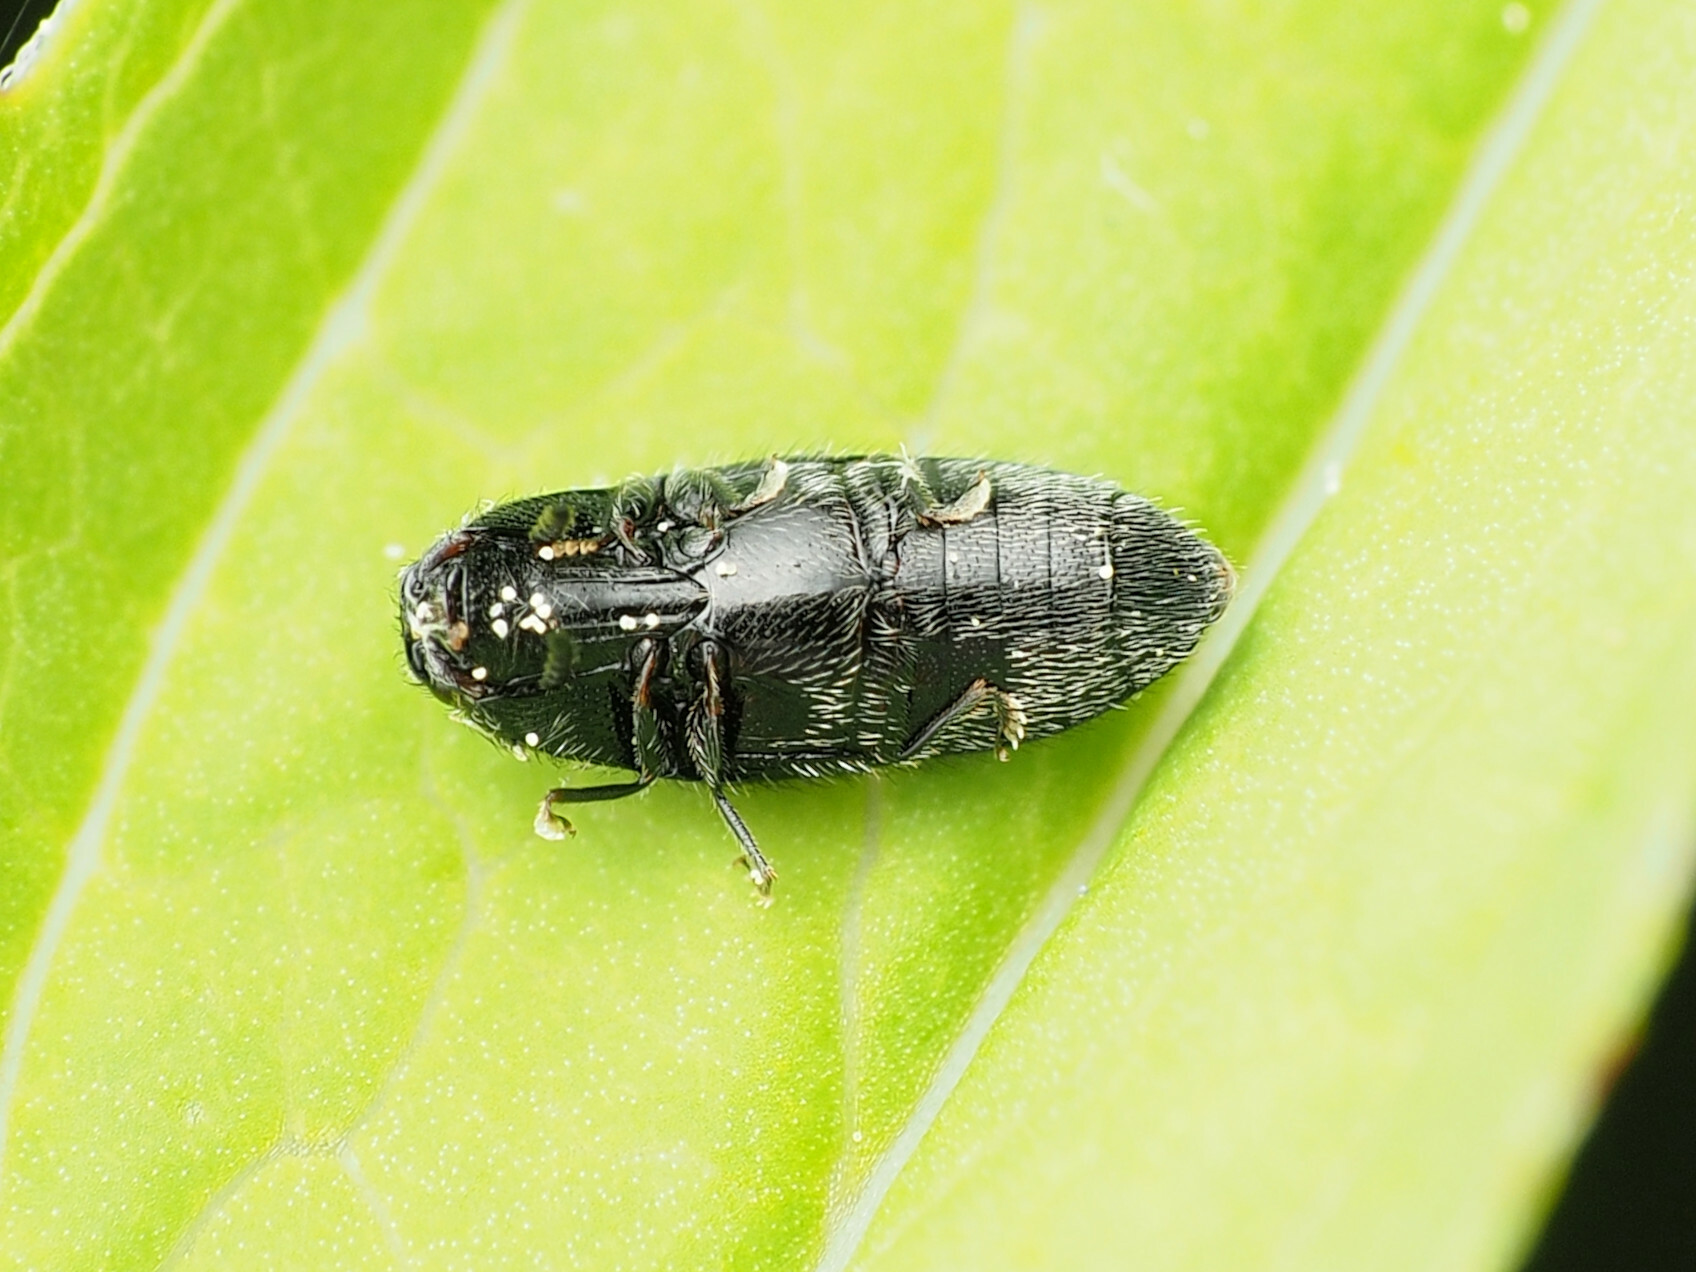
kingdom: Animalia
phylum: Arthropoda
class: Insecta
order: Coleoptera
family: Elateridae
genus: Drapetes
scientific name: Drapetes exstriatus
